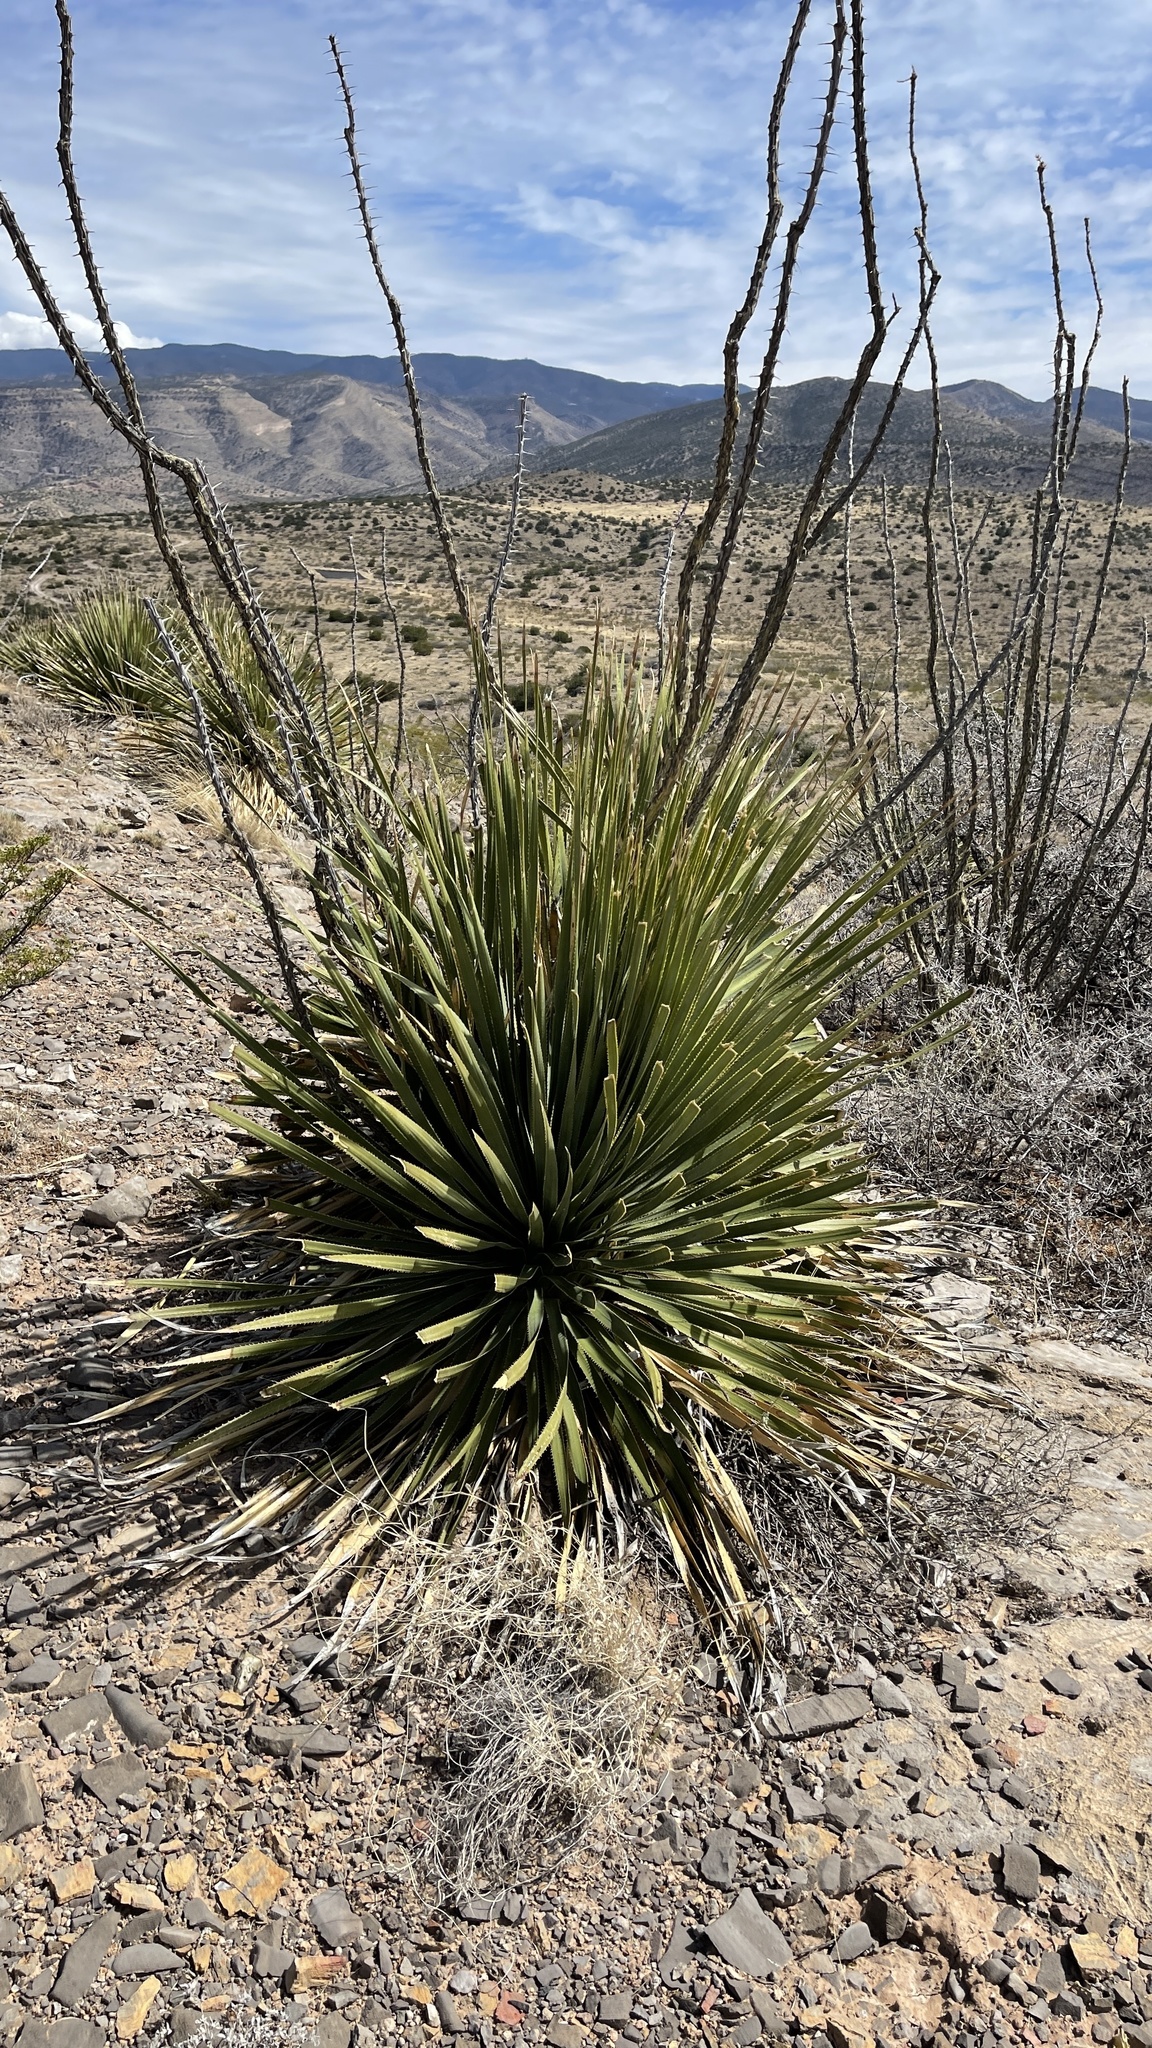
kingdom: Plantae
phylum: Tracheophyta
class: Liliopsida
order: Asparagales
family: Asparagaceae
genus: Dasylirion
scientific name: Dasylirion wheeleri
